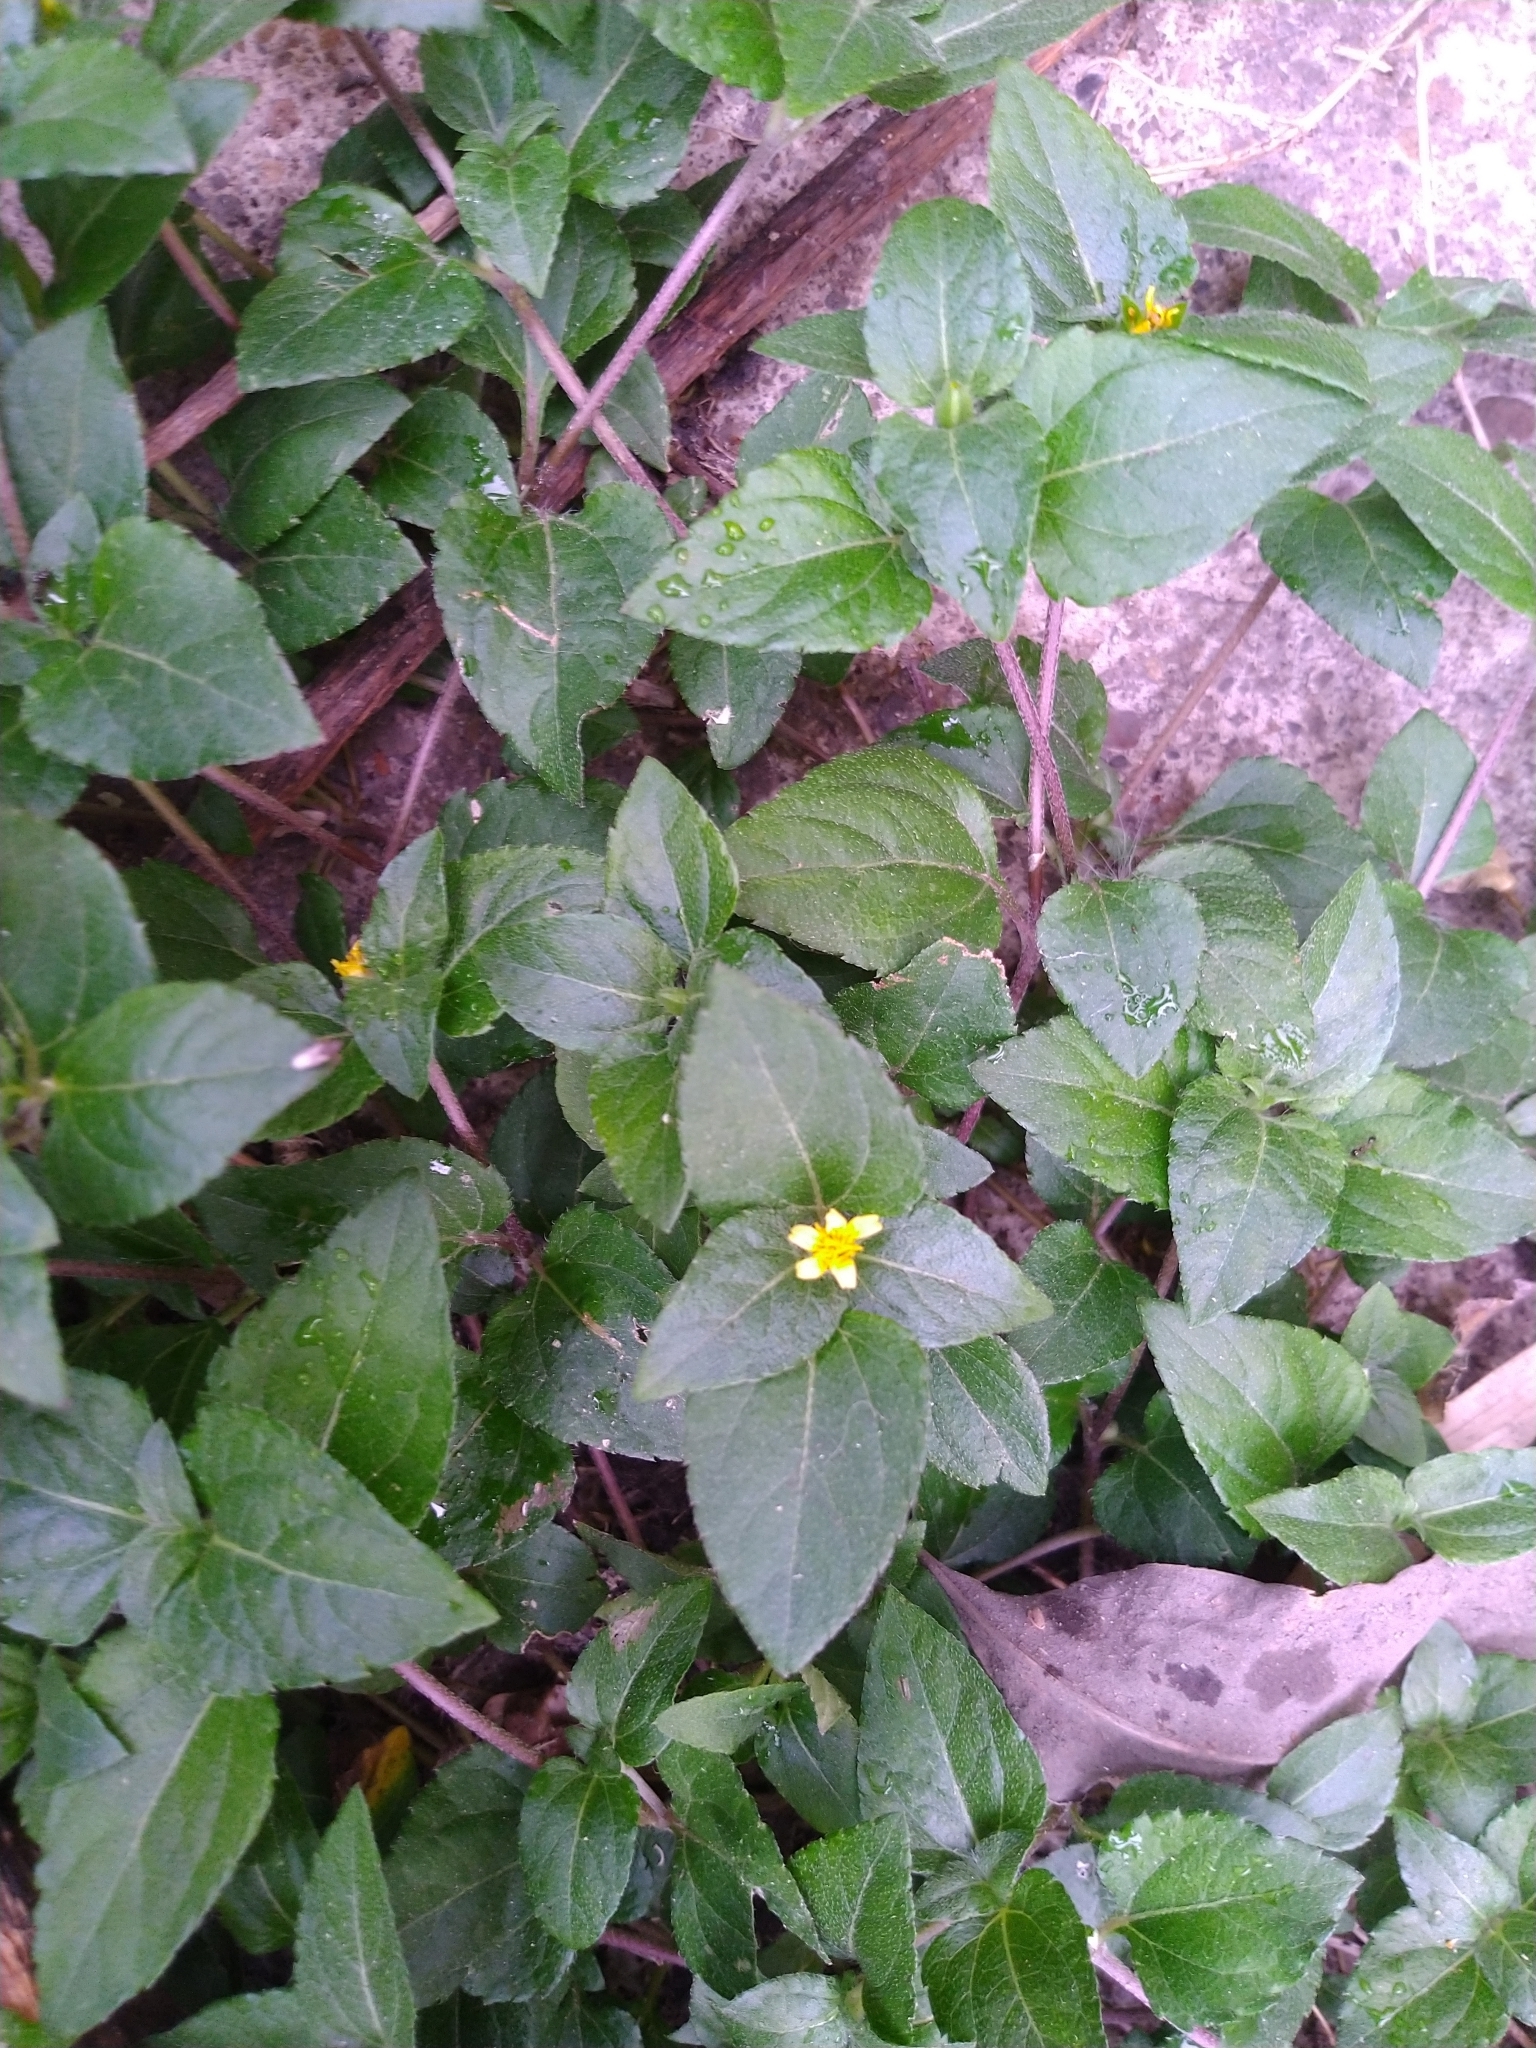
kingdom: Plantae
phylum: Tracheophyta
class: Magnoliopsida
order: Asterales
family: Asteraceae
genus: Calyptocarpus
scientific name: Calyptocarpus vialis
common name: Straggler daisy
